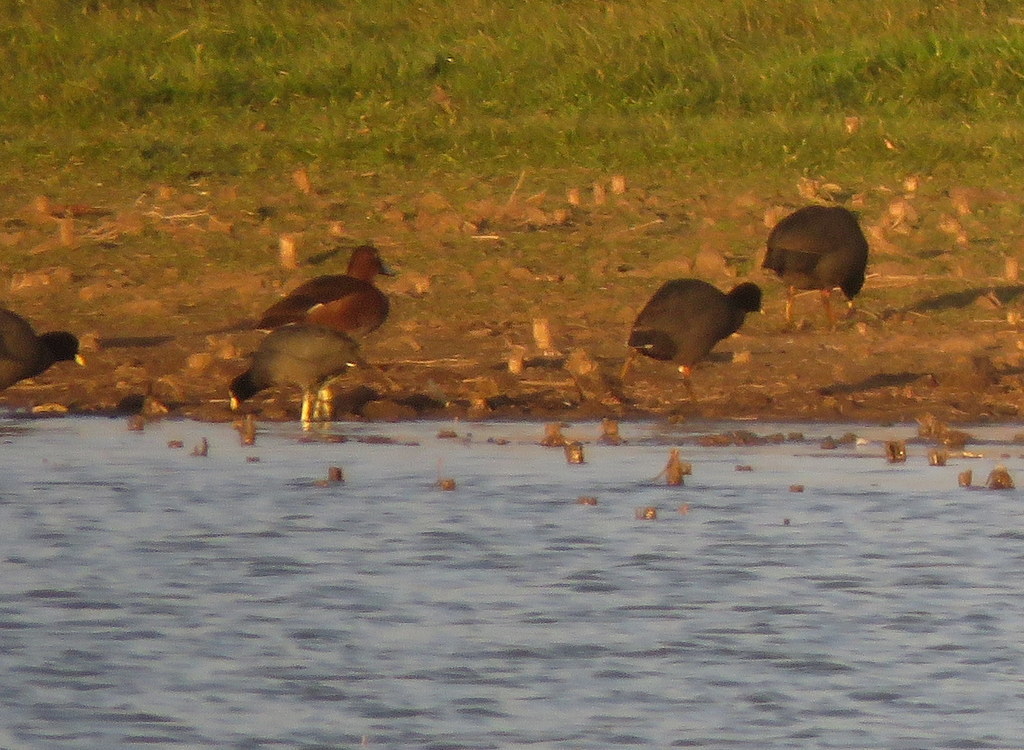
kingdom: Animalia
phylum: Chordata
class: Aves
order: Anseriformes
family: Anatidae
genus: Spatula
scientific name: Spatula cyanoptera
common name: Cinnamon teal
